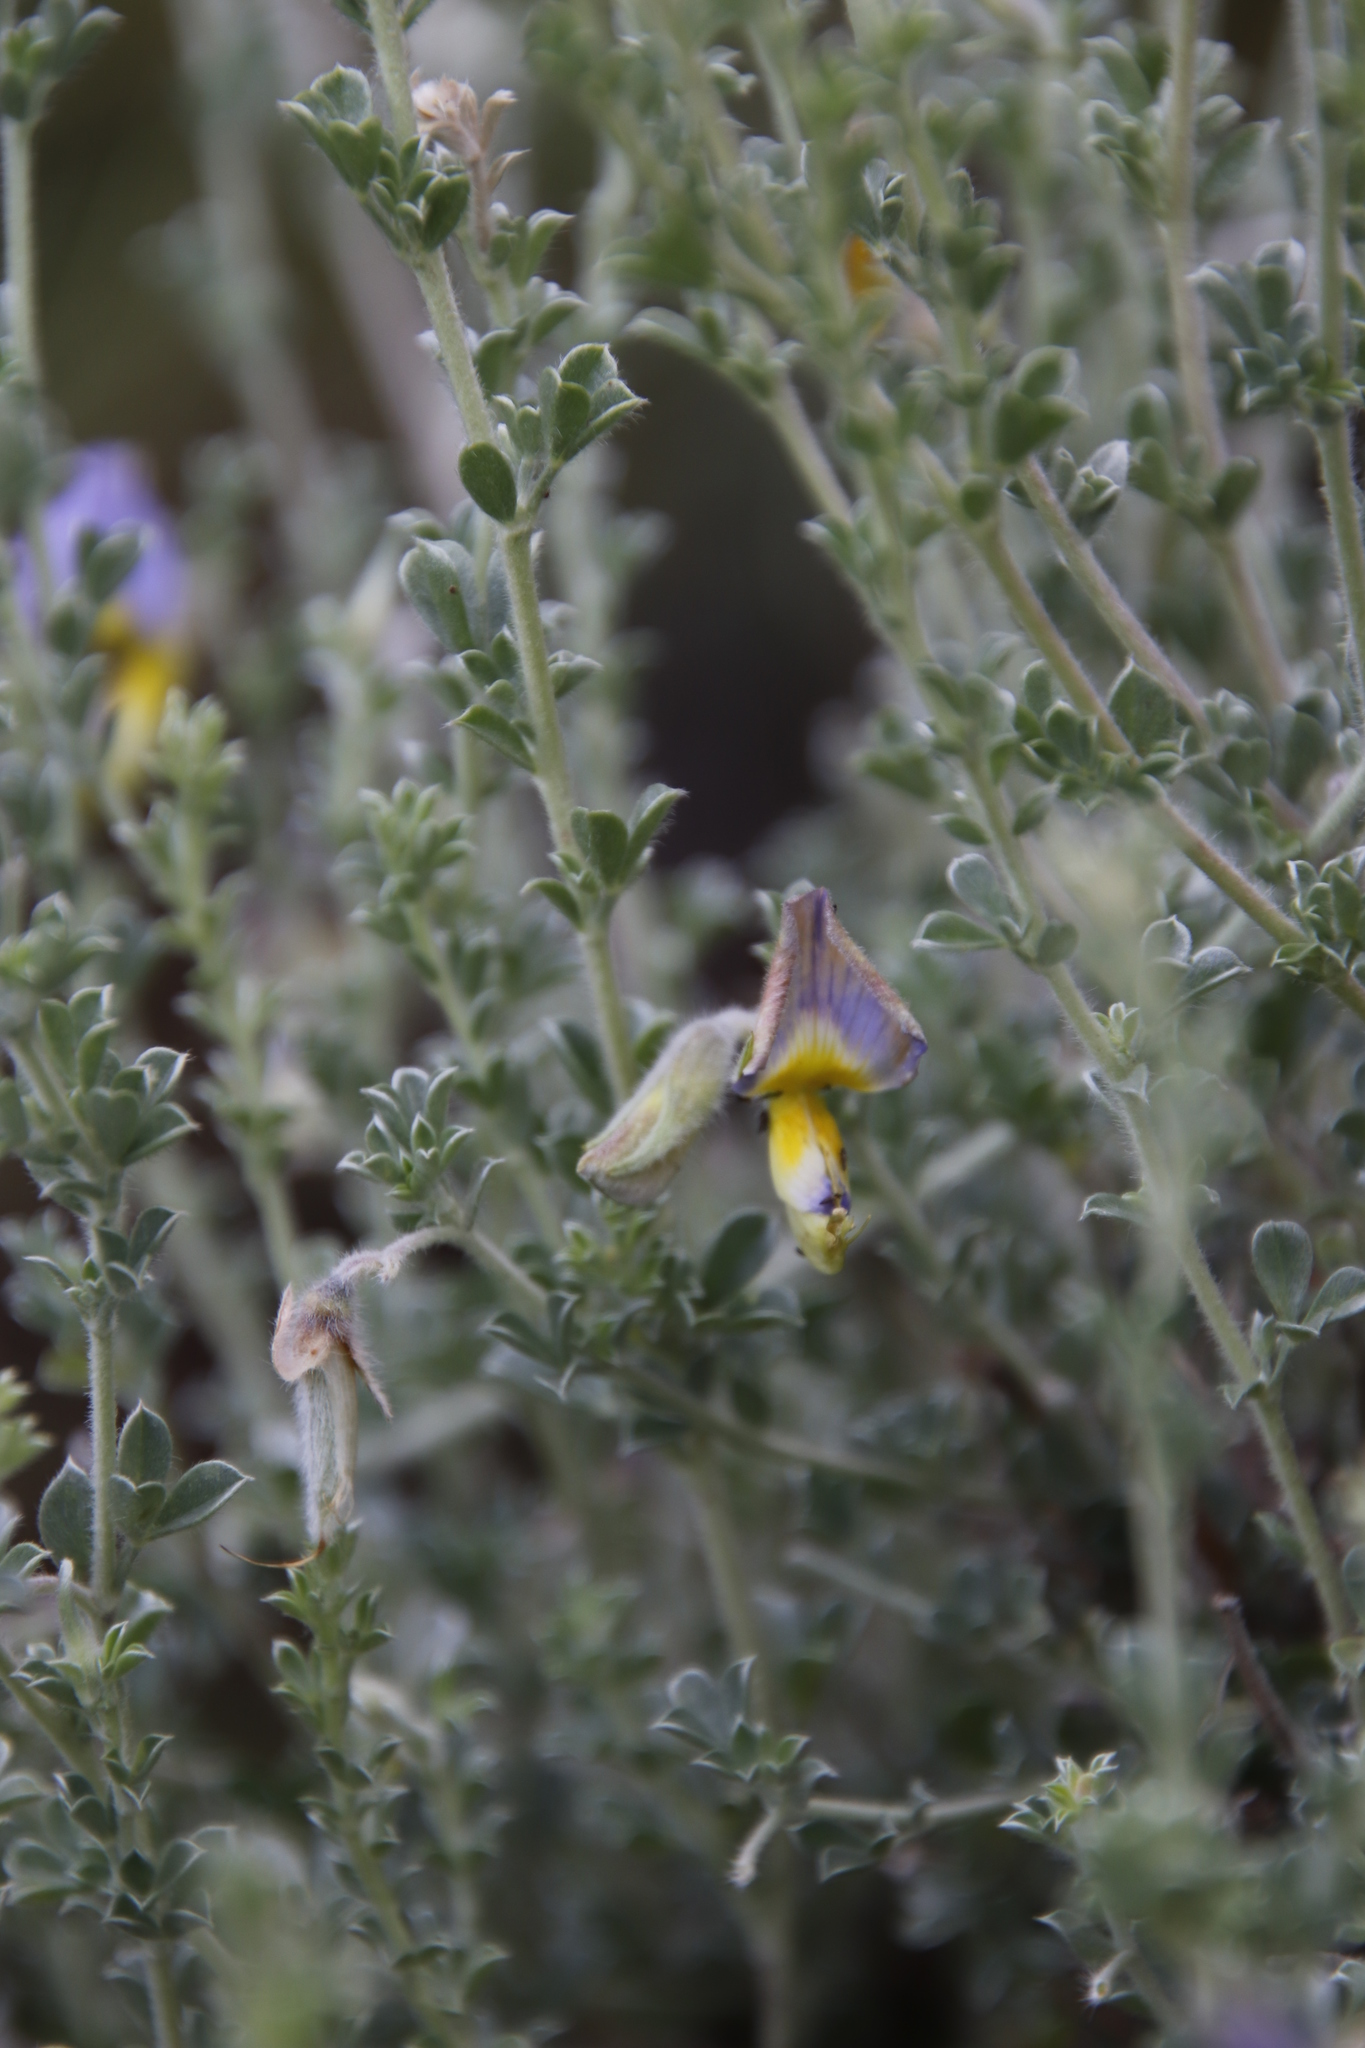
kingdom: Plantae
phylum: Tracheophyta
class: Magnoliopsida
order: Fabales
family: Fabaceae
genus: Lotononis
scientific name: Lotononis minor
